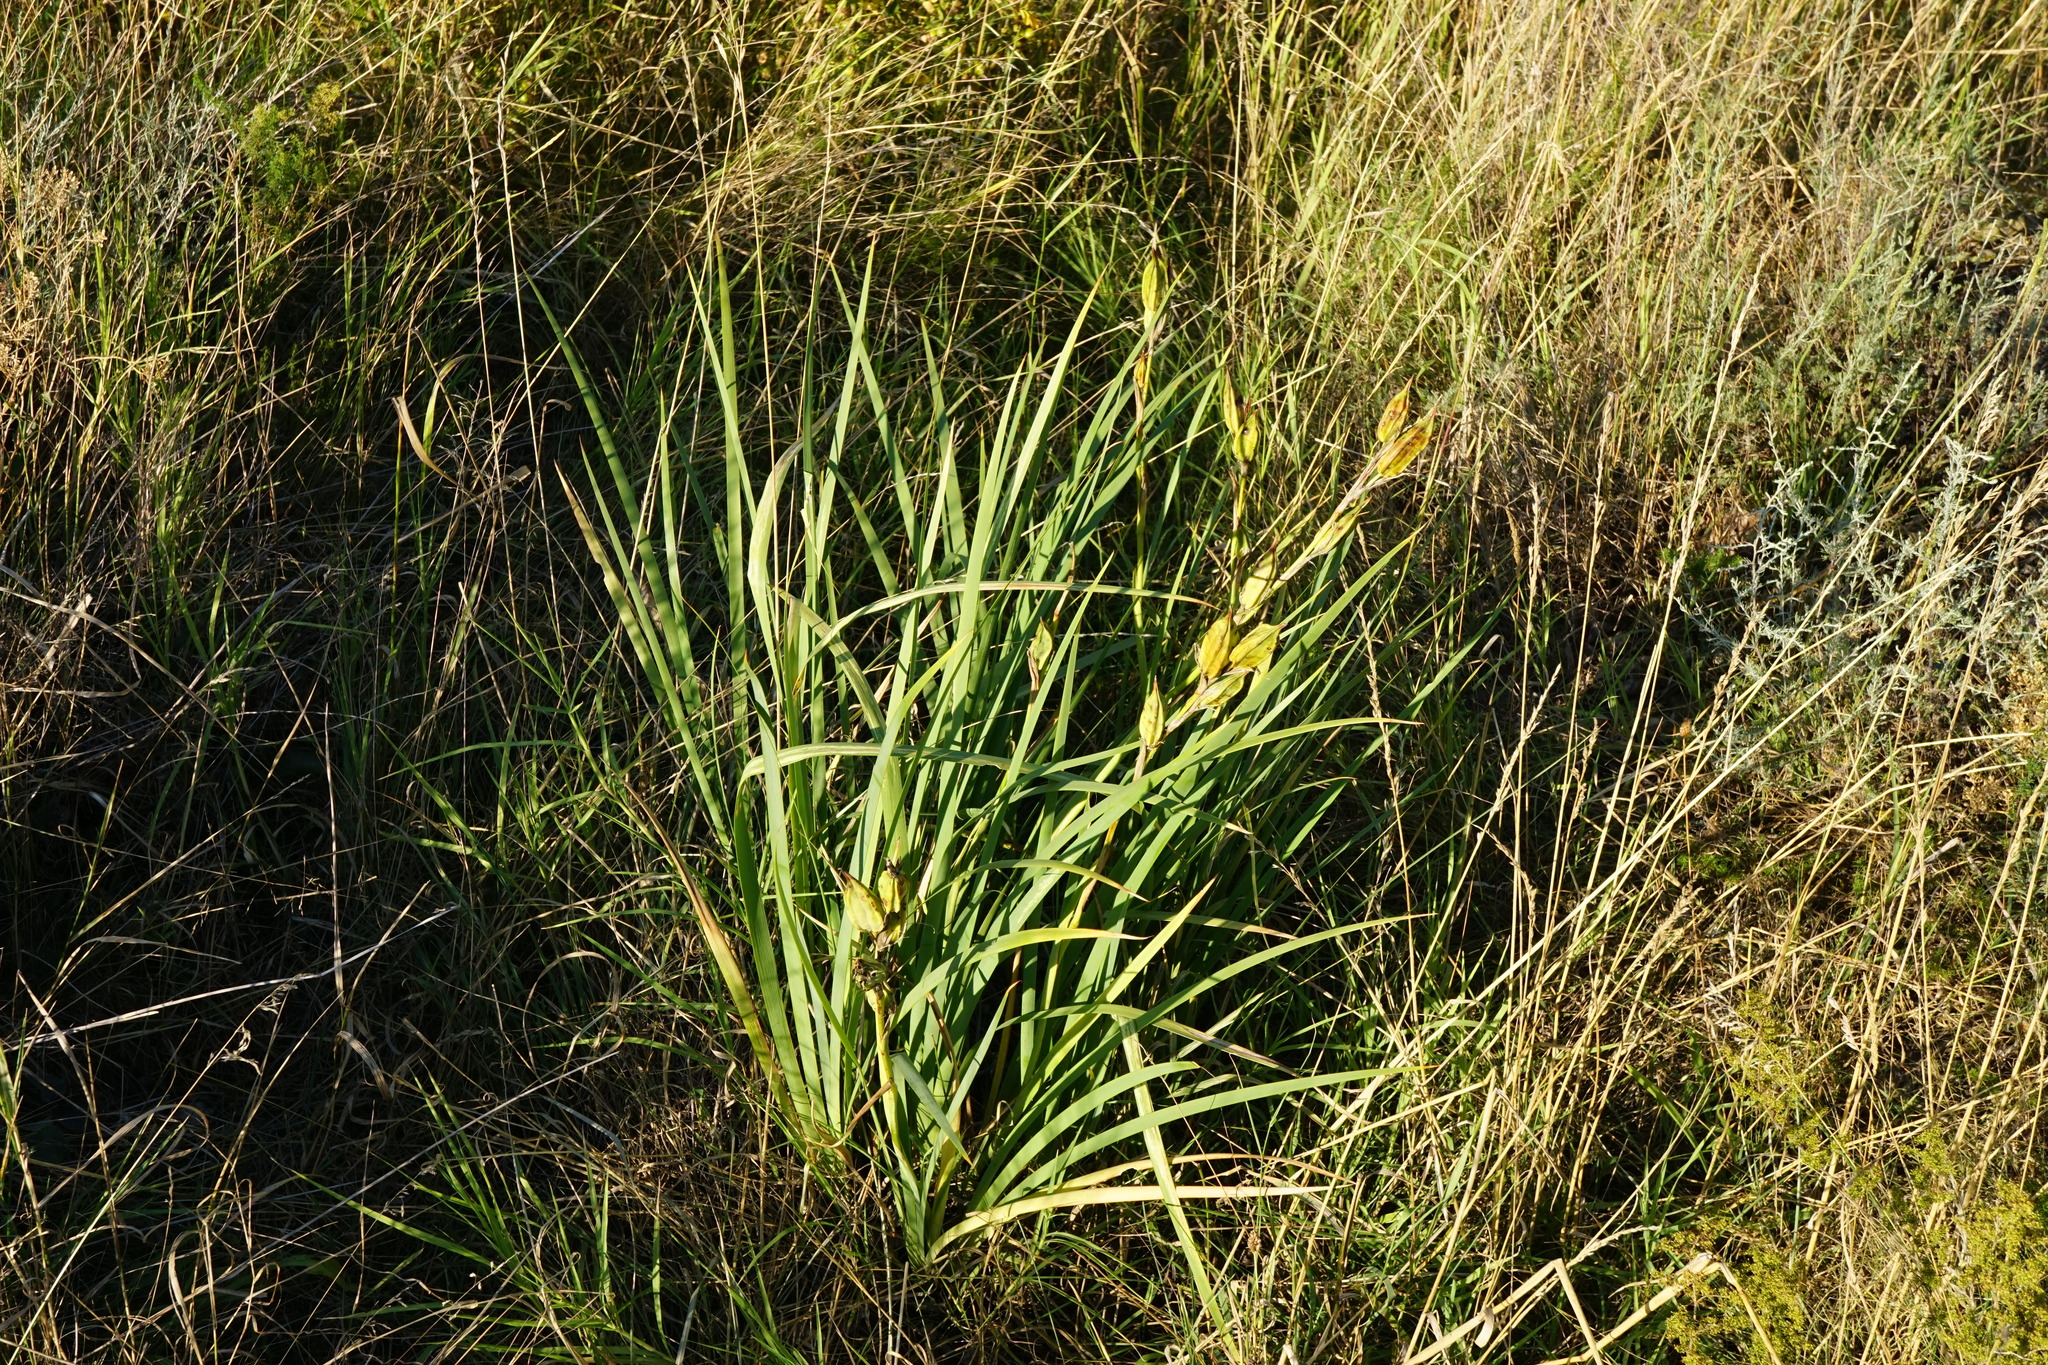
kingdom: Plantae
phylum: Tracheophyta
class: Liliopsida
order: Asparagales
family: Iridaceae
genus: Iris
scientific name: Iris spuria
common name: Blue iris
